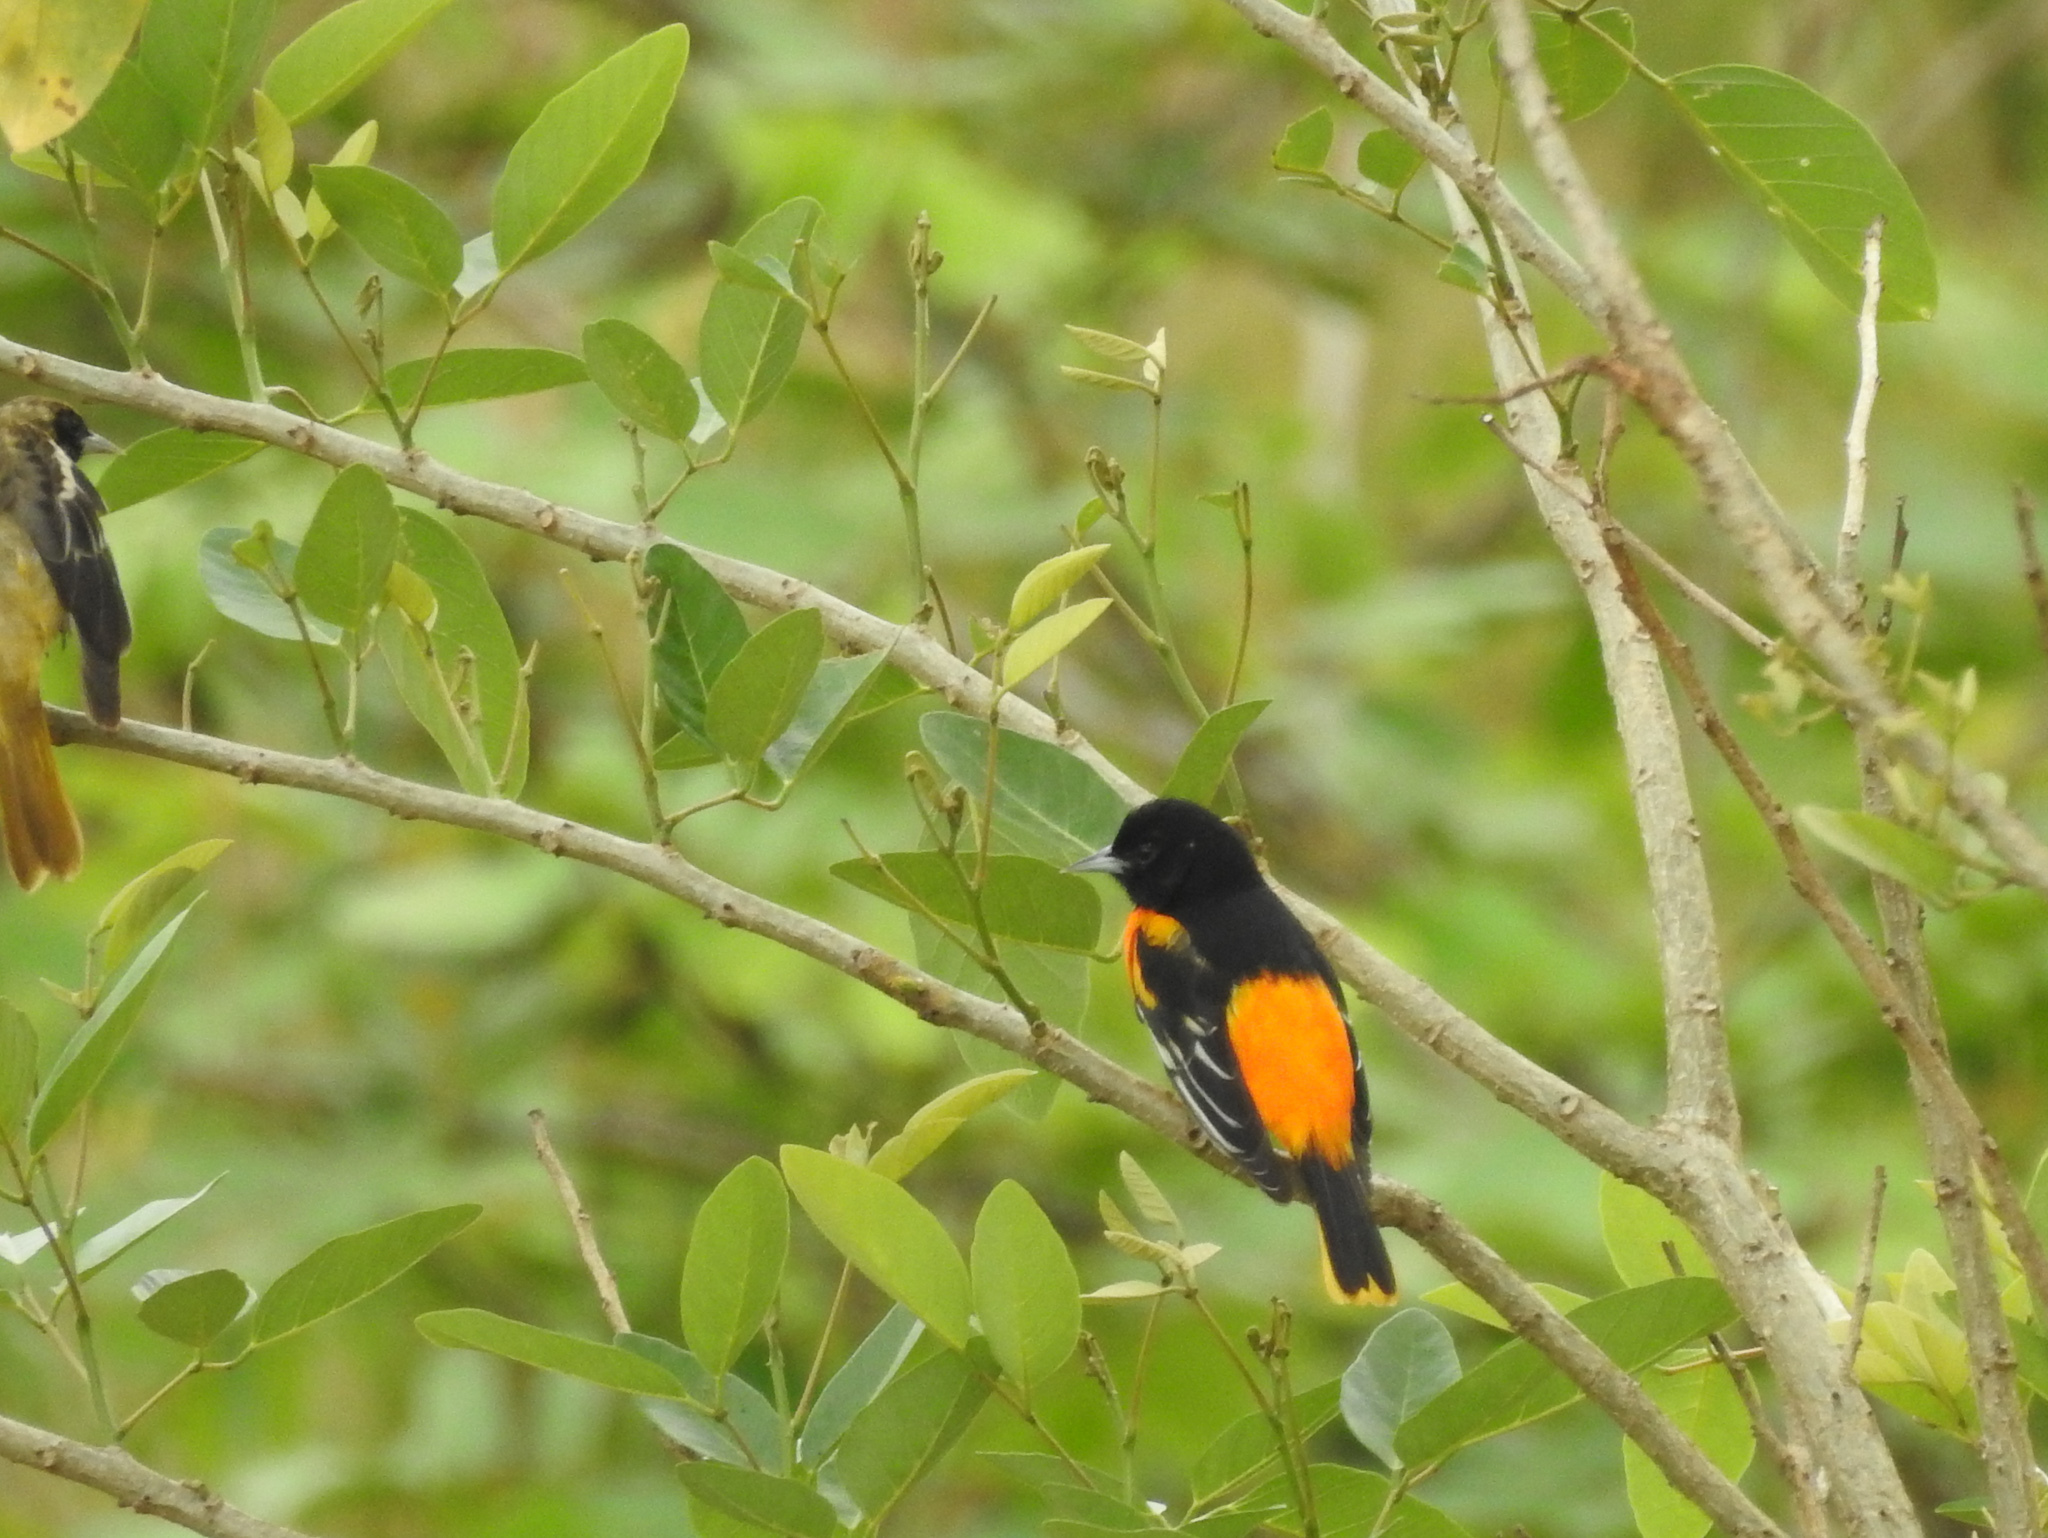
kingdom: Animalia
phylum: Chordata
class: Aves
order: Passeriformes
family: Icteridae
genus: Icterus
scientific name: Icterus galbula
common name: Baltimore oriole
